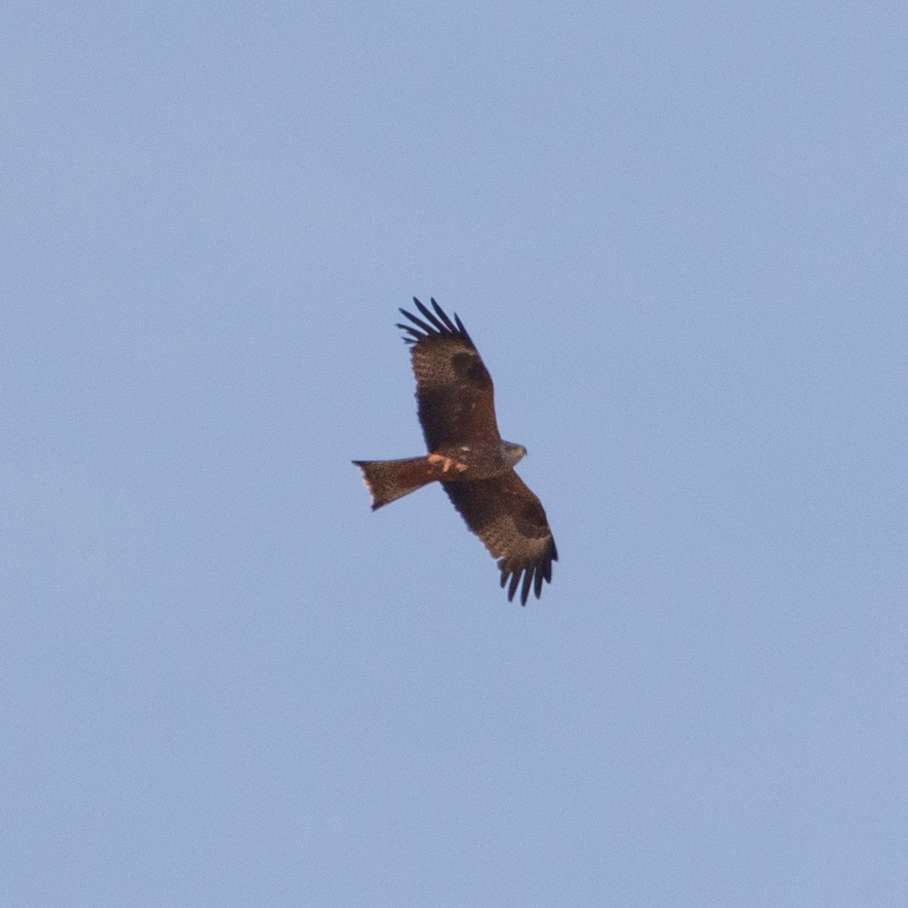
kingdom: Animalia
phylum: Chordata
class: Aves
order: Accipitriformes
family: Accipitridae
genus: Milvus
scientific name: Milvus migrans
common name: Black kite
